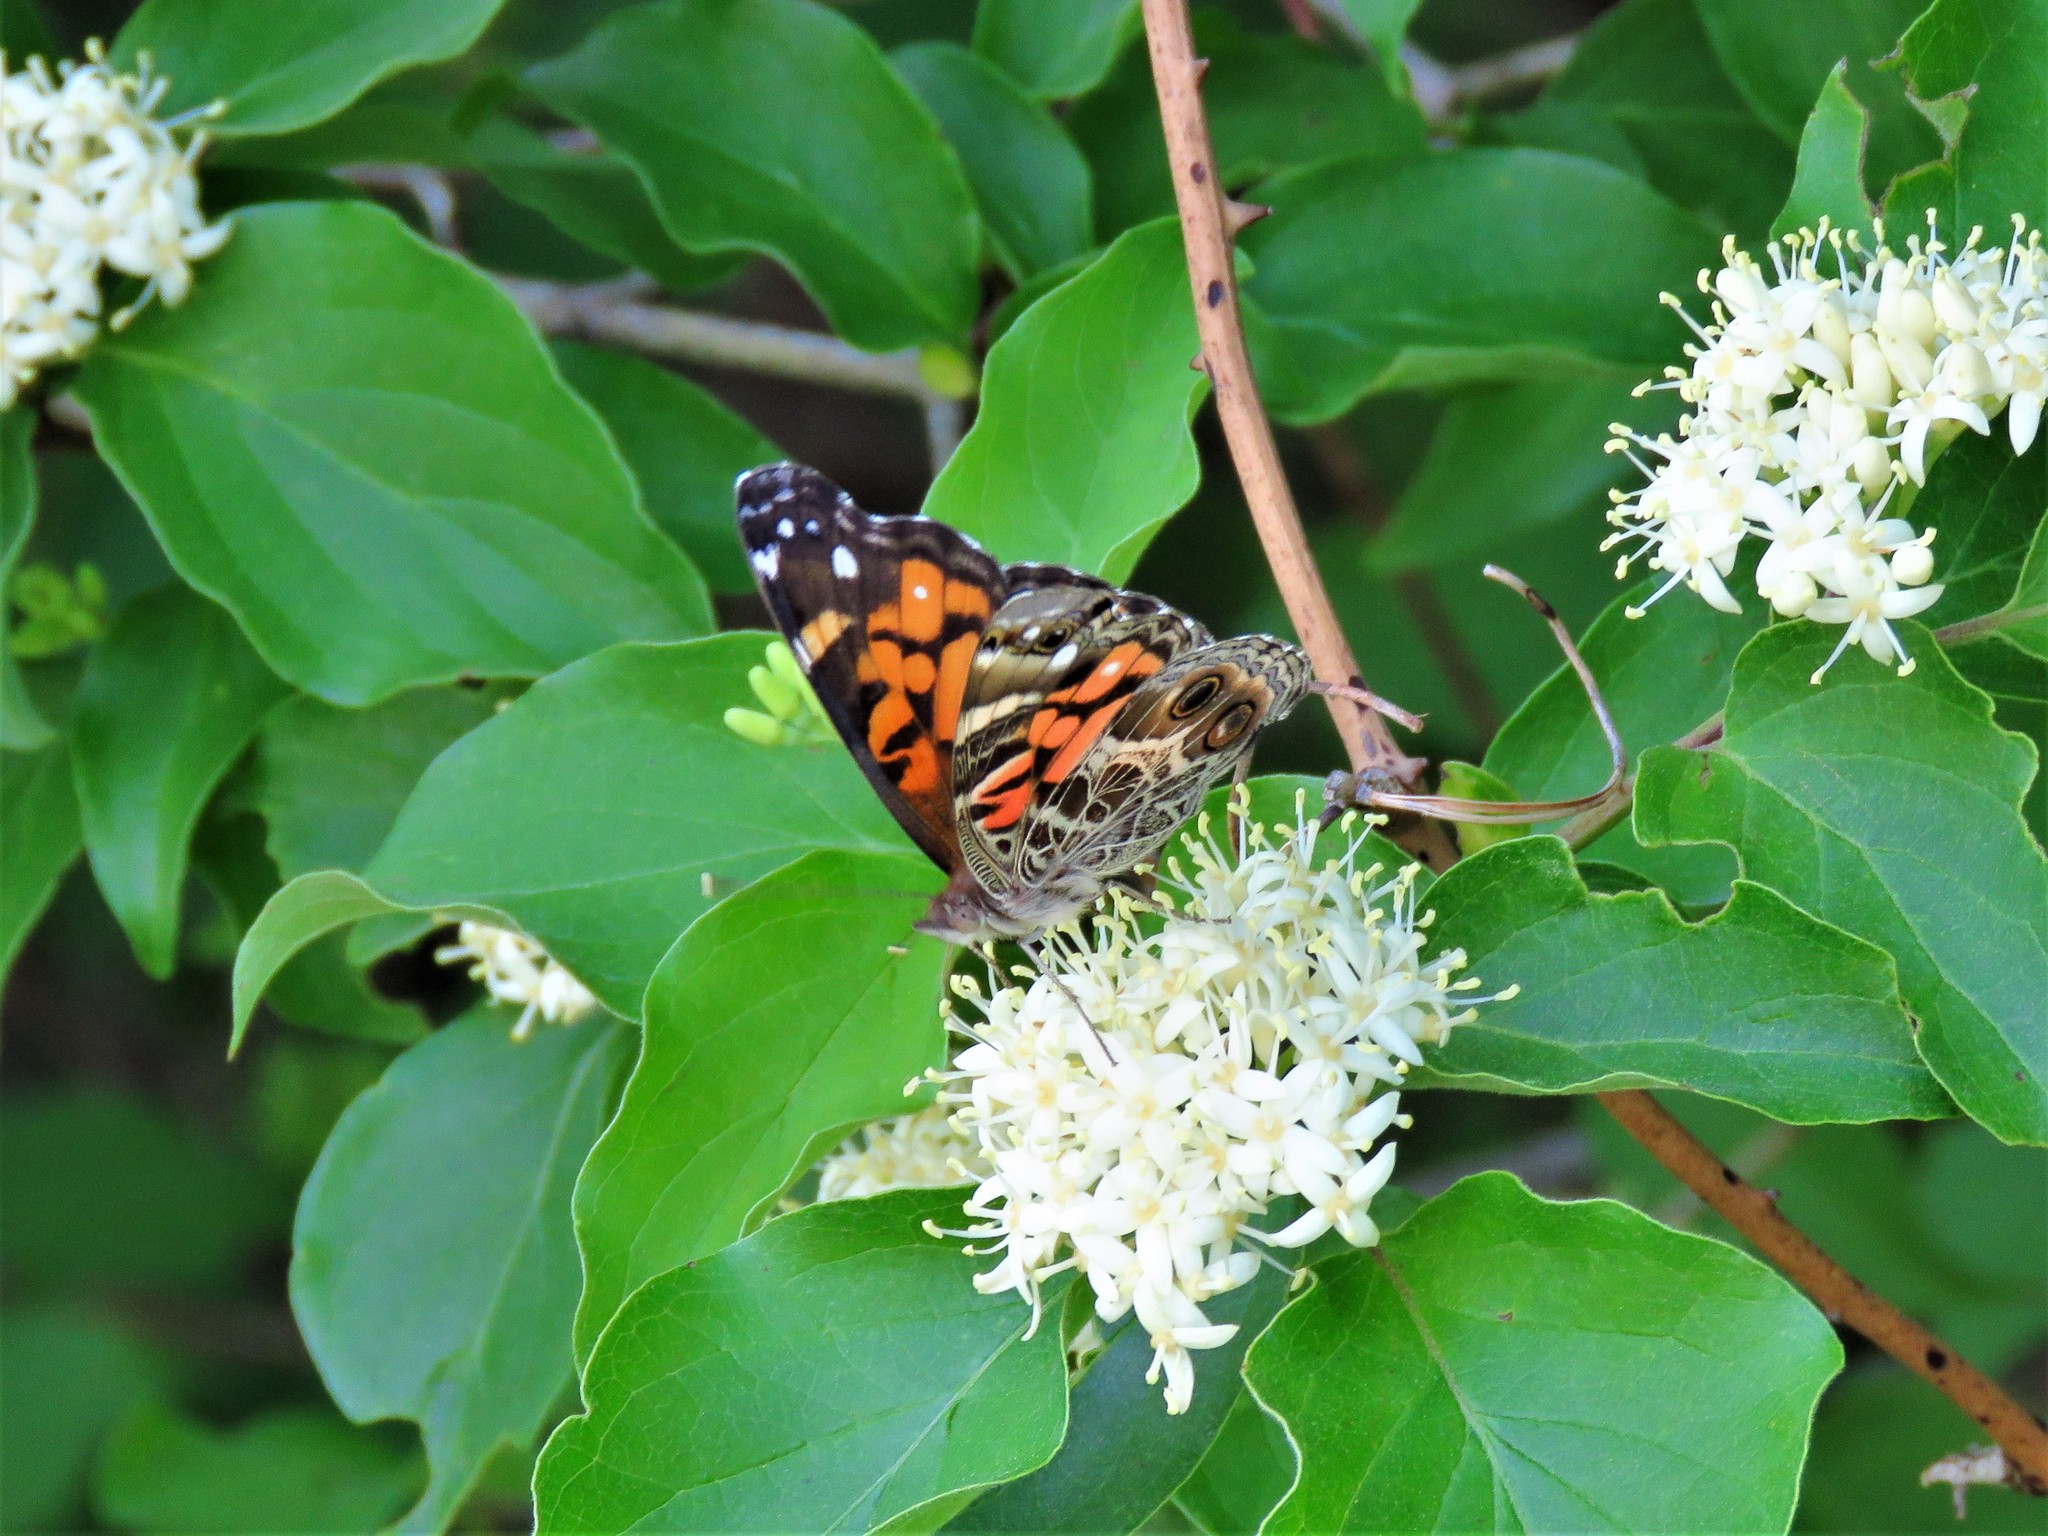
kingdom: Animalia
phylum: Arthropoda
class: Insecta
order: Lepidoptera
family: Nymphalidae
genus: Vanessa
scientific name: Vanessa virginiensis
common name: American lady
